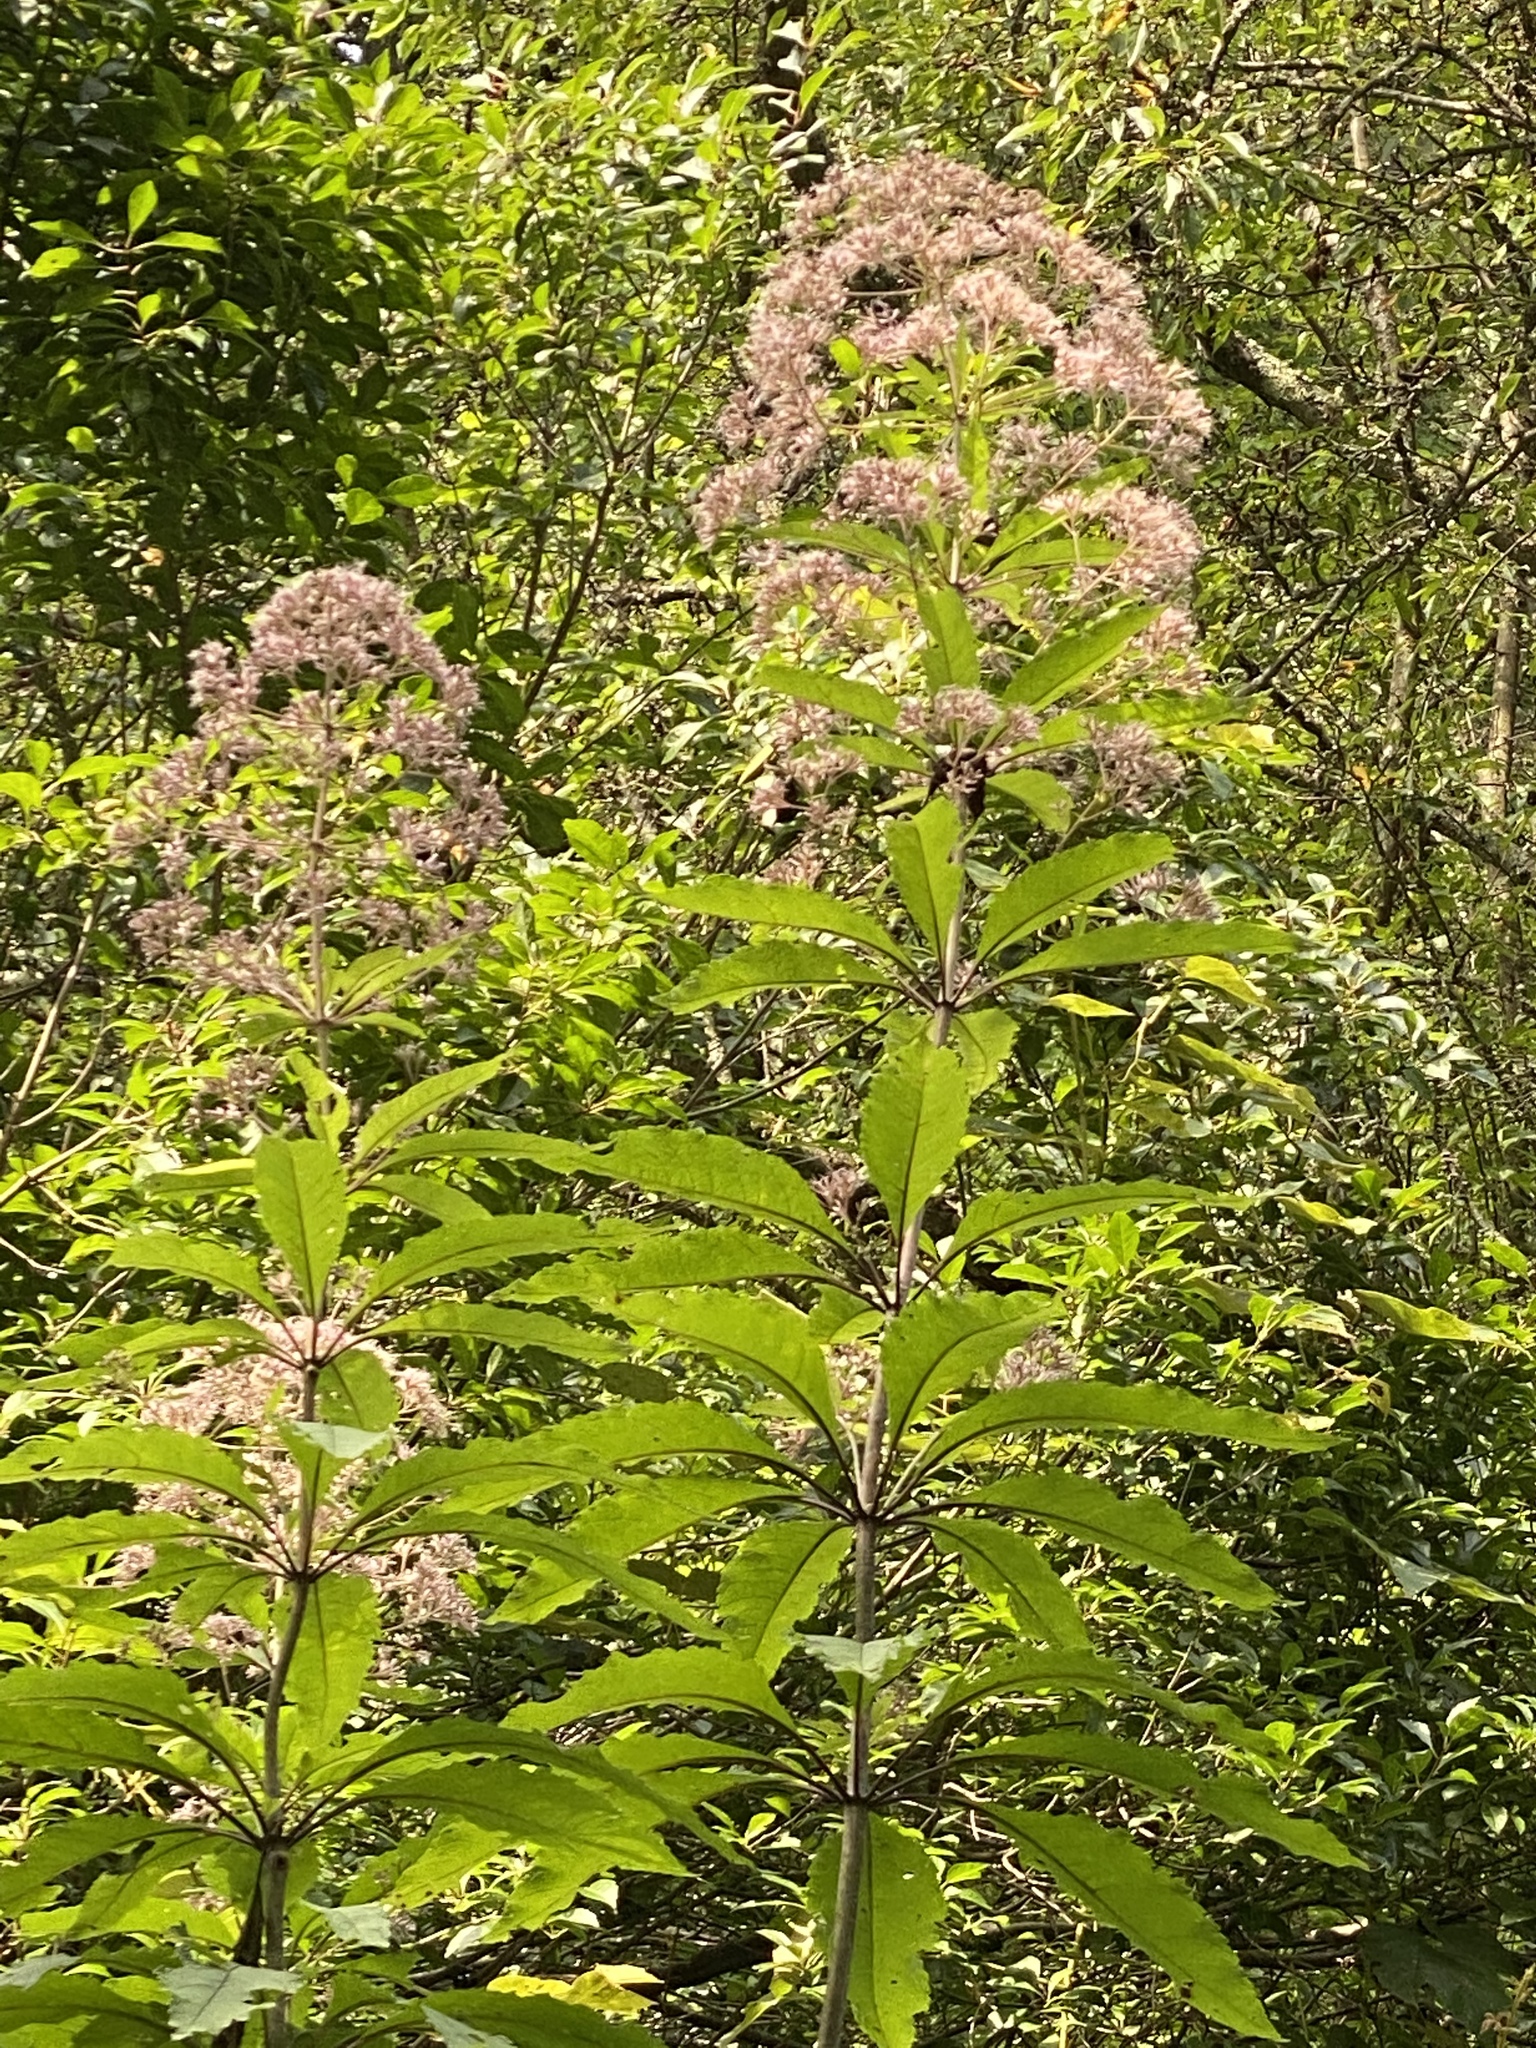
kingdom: Plantae
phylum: Tracheophyta
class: Magnoliopsida
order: Asterales
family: Asteraceae
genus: Eutrochium
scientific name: Eutrochium fistulosum
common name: Trumpetweed
